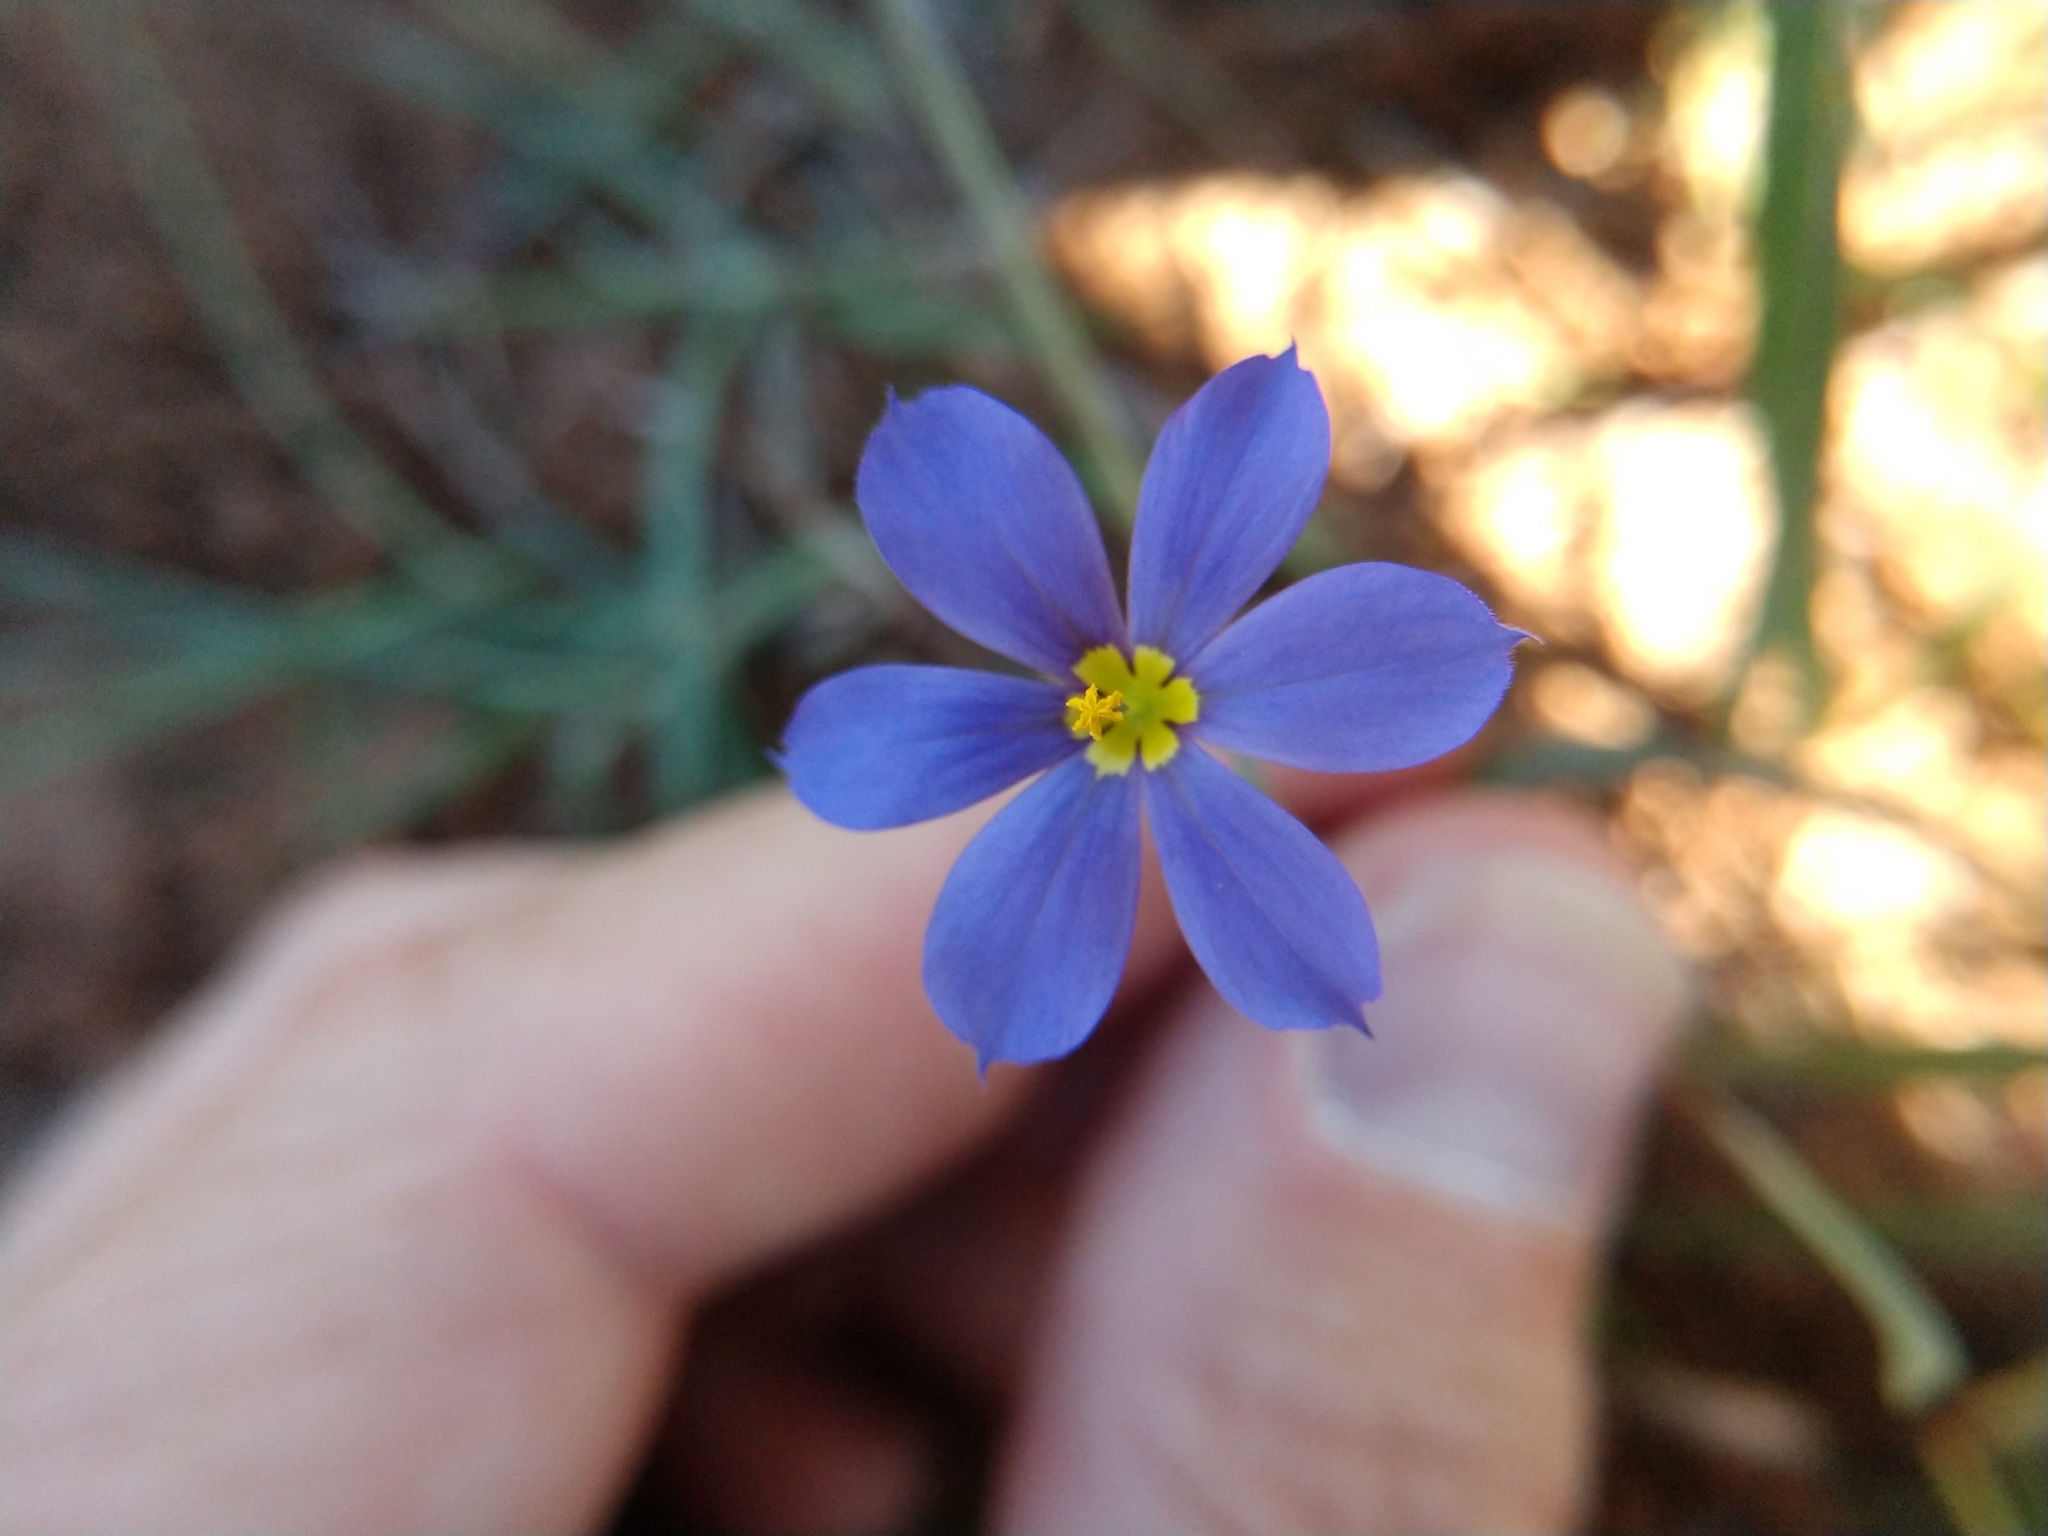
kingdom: Plantae
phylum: Tracheophyta
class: Liliopsida
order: Asparagales
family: Iridaceae
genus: Sisyrinchium
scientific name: Sisyrinchium ensigerum
